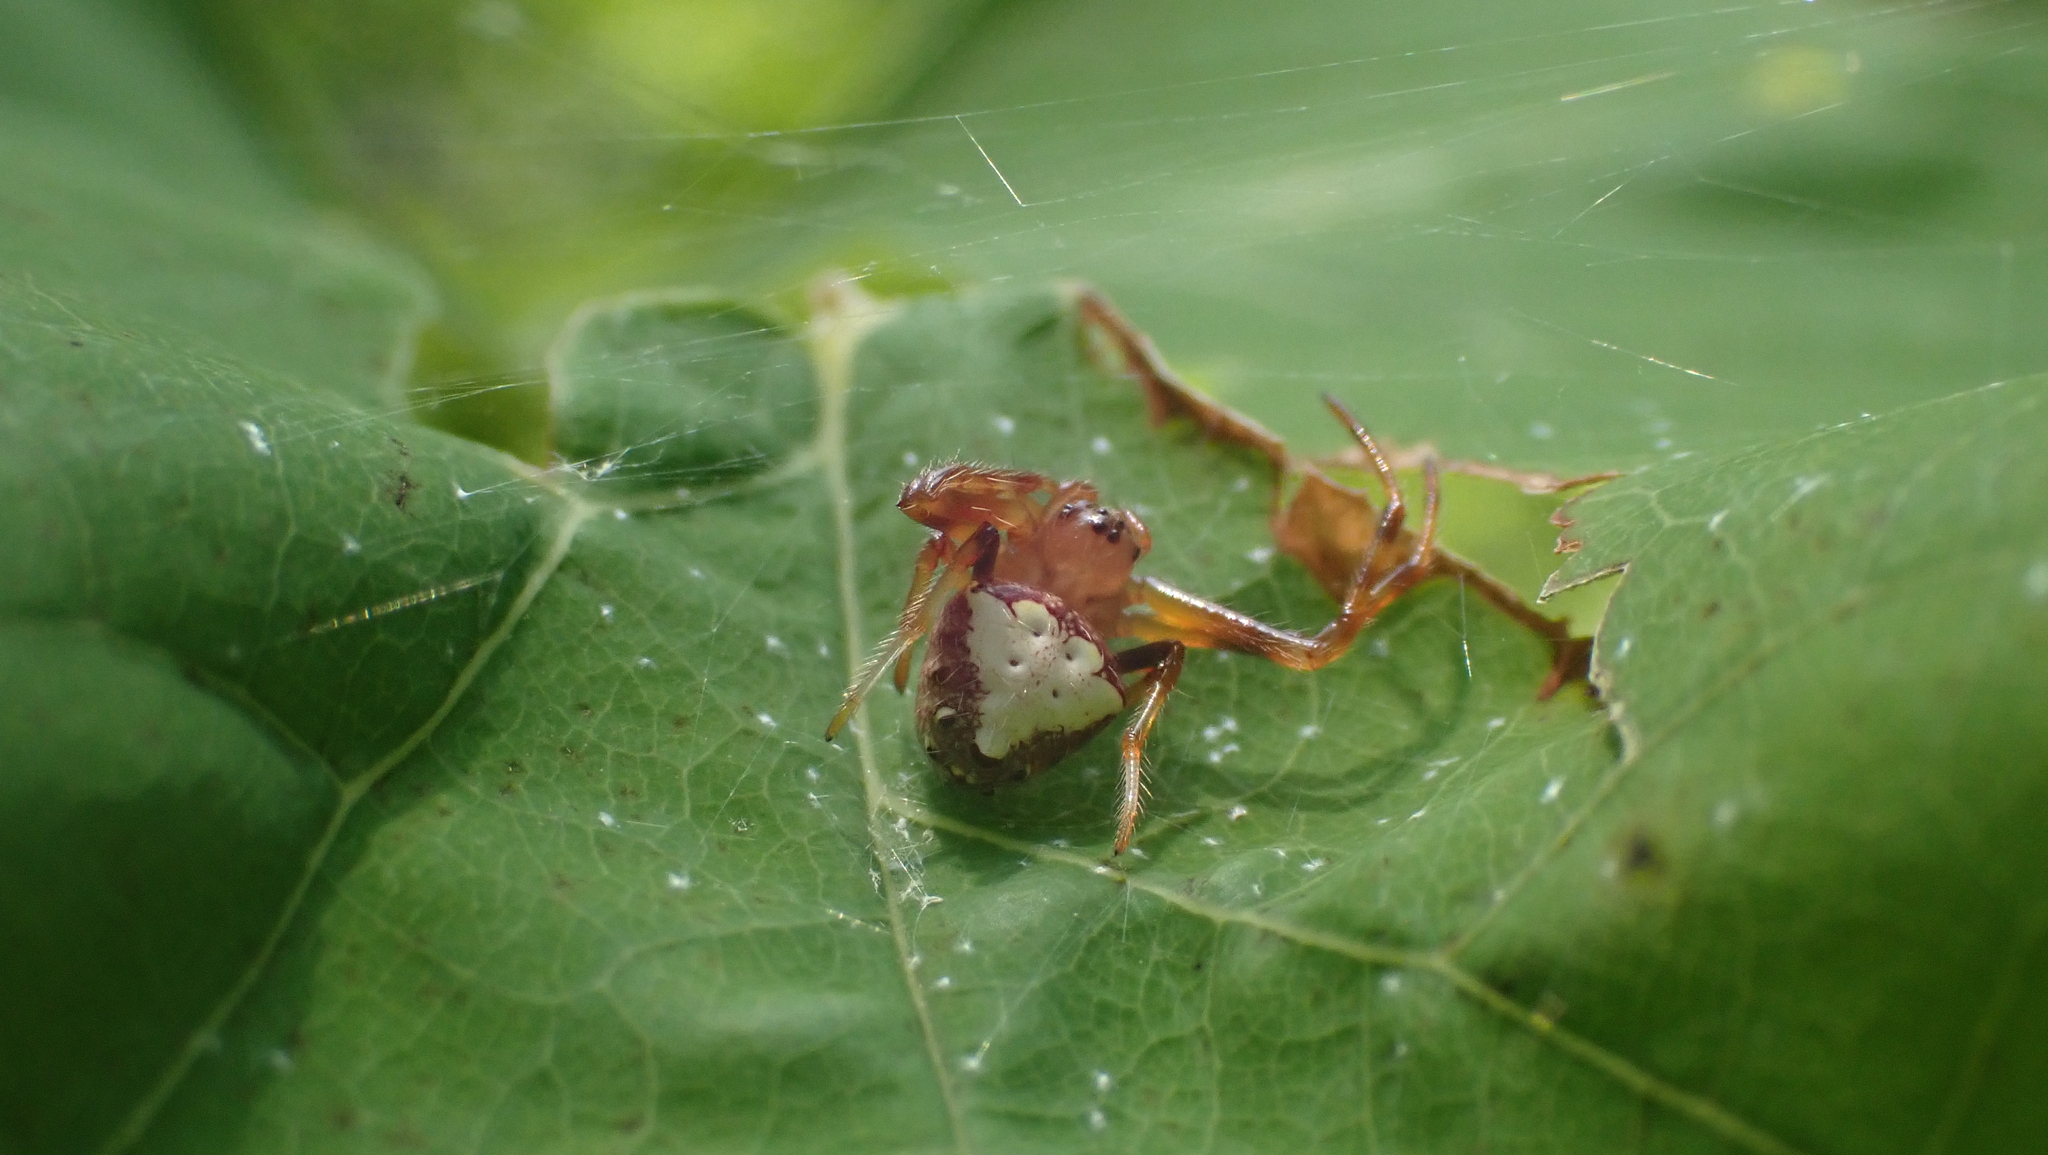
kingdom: Animalia
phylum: Arthropoda
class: Arachnida
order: Araneae
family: Araneidae
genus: Verrucosa
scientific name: Verrucosa arenata
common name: Orb weavers
